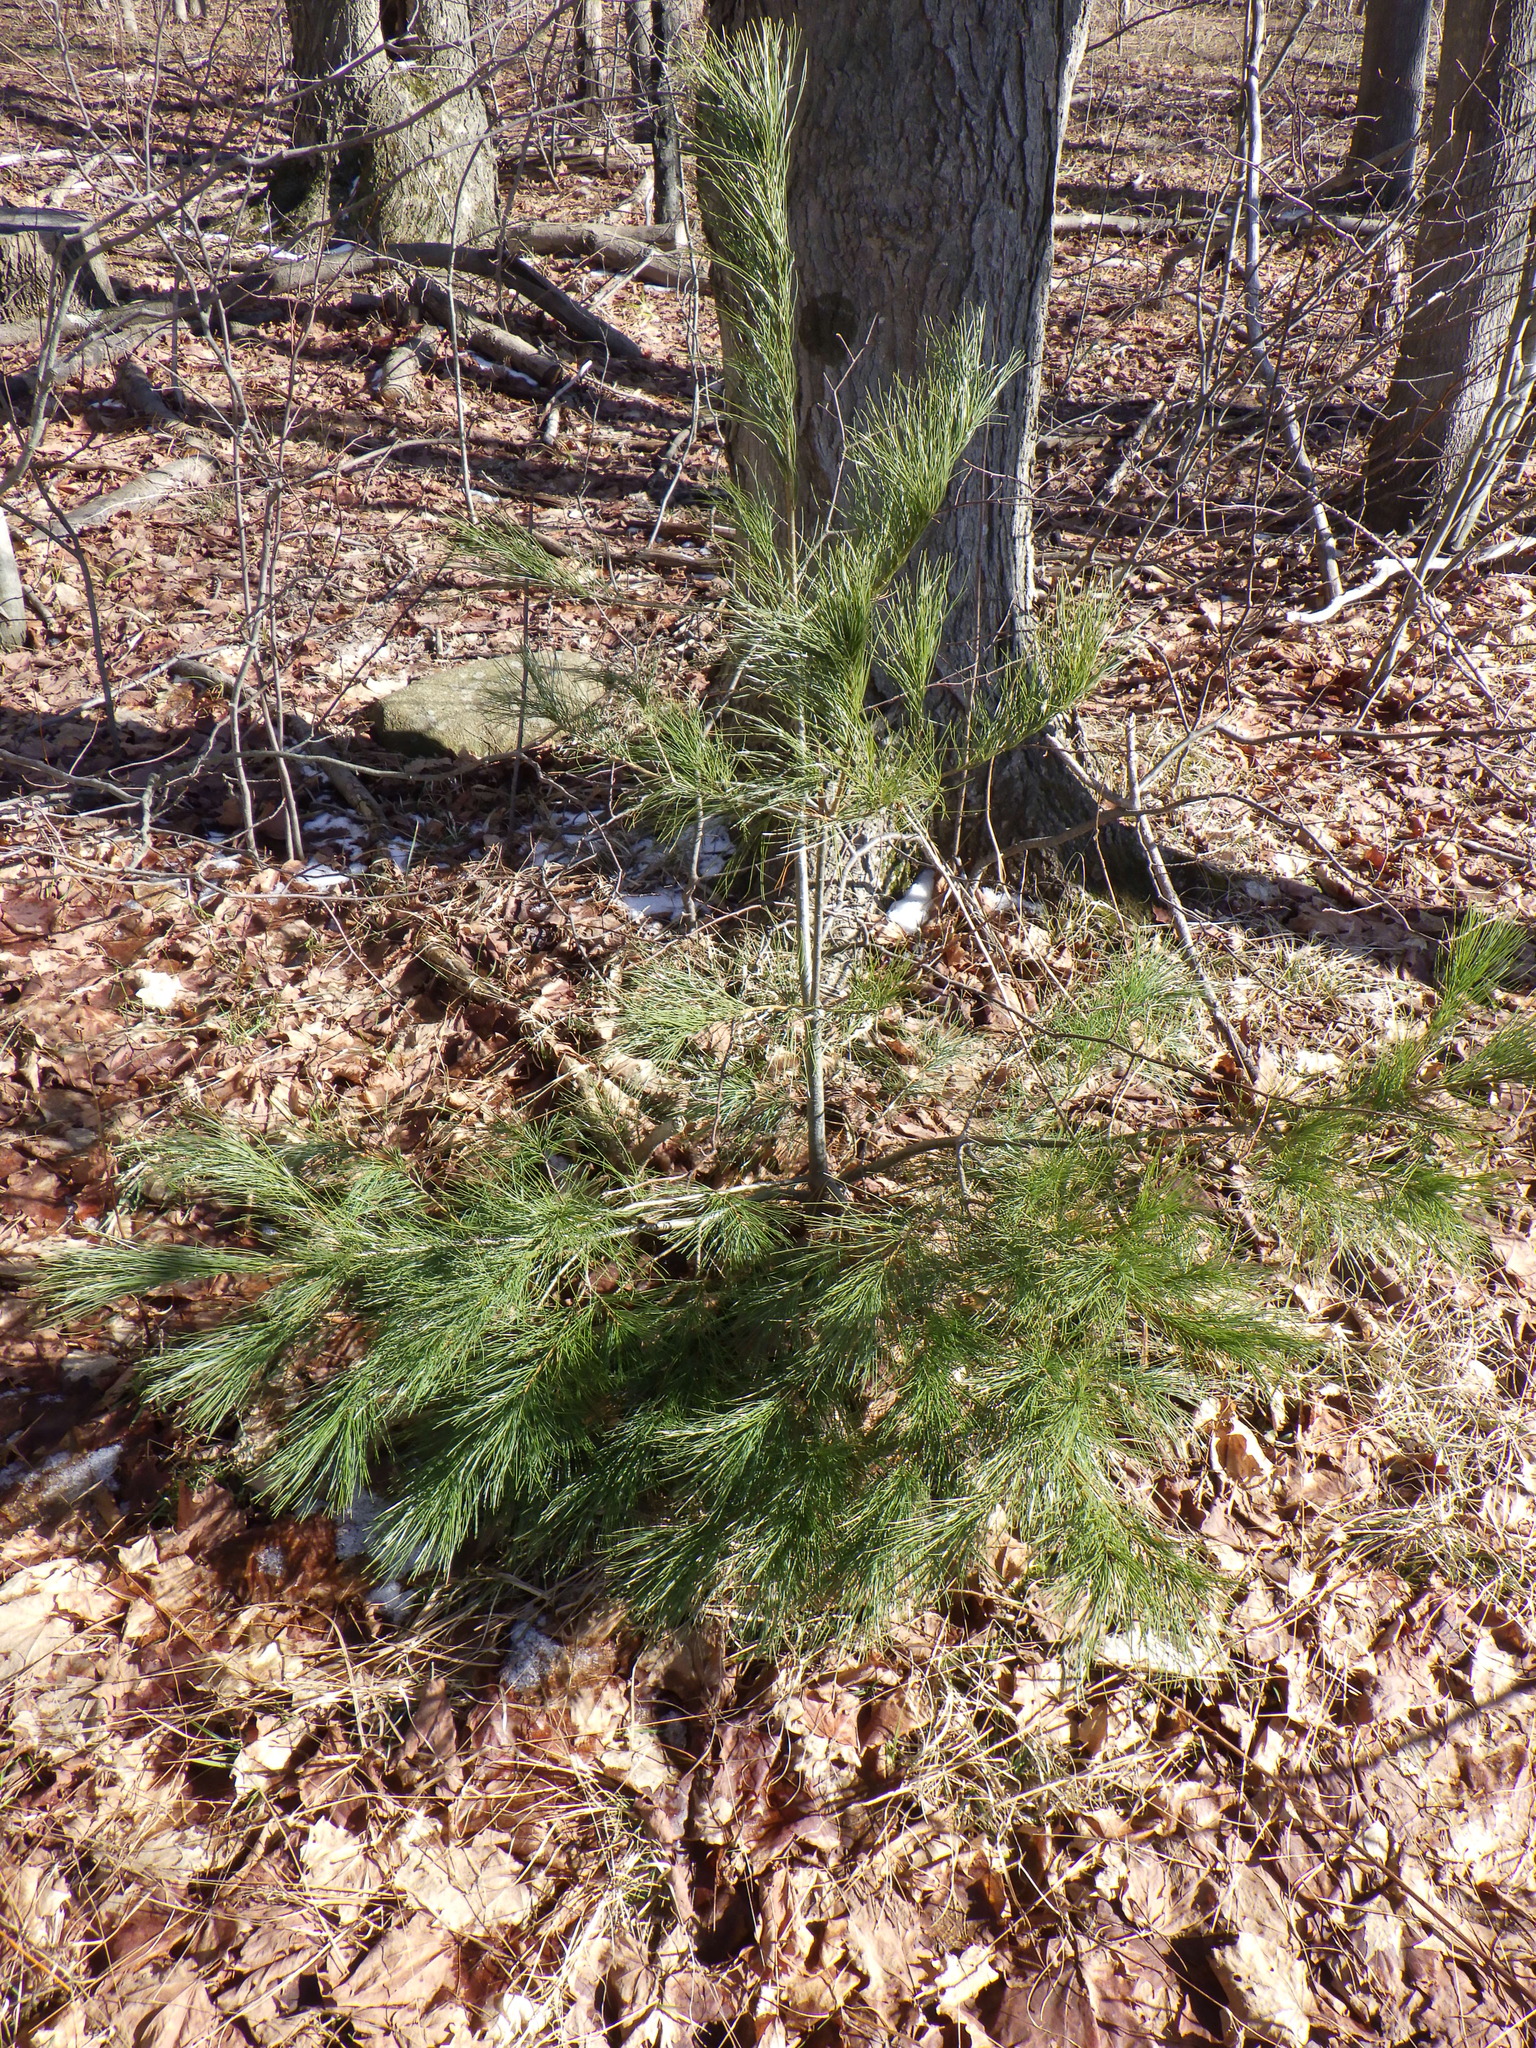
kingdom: Plantae
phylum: Tracheophyta
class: Pinopsida
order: Pinales
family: Pinaceae
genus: Pinus
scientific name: Pinus strobus
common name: Weymouth pine
